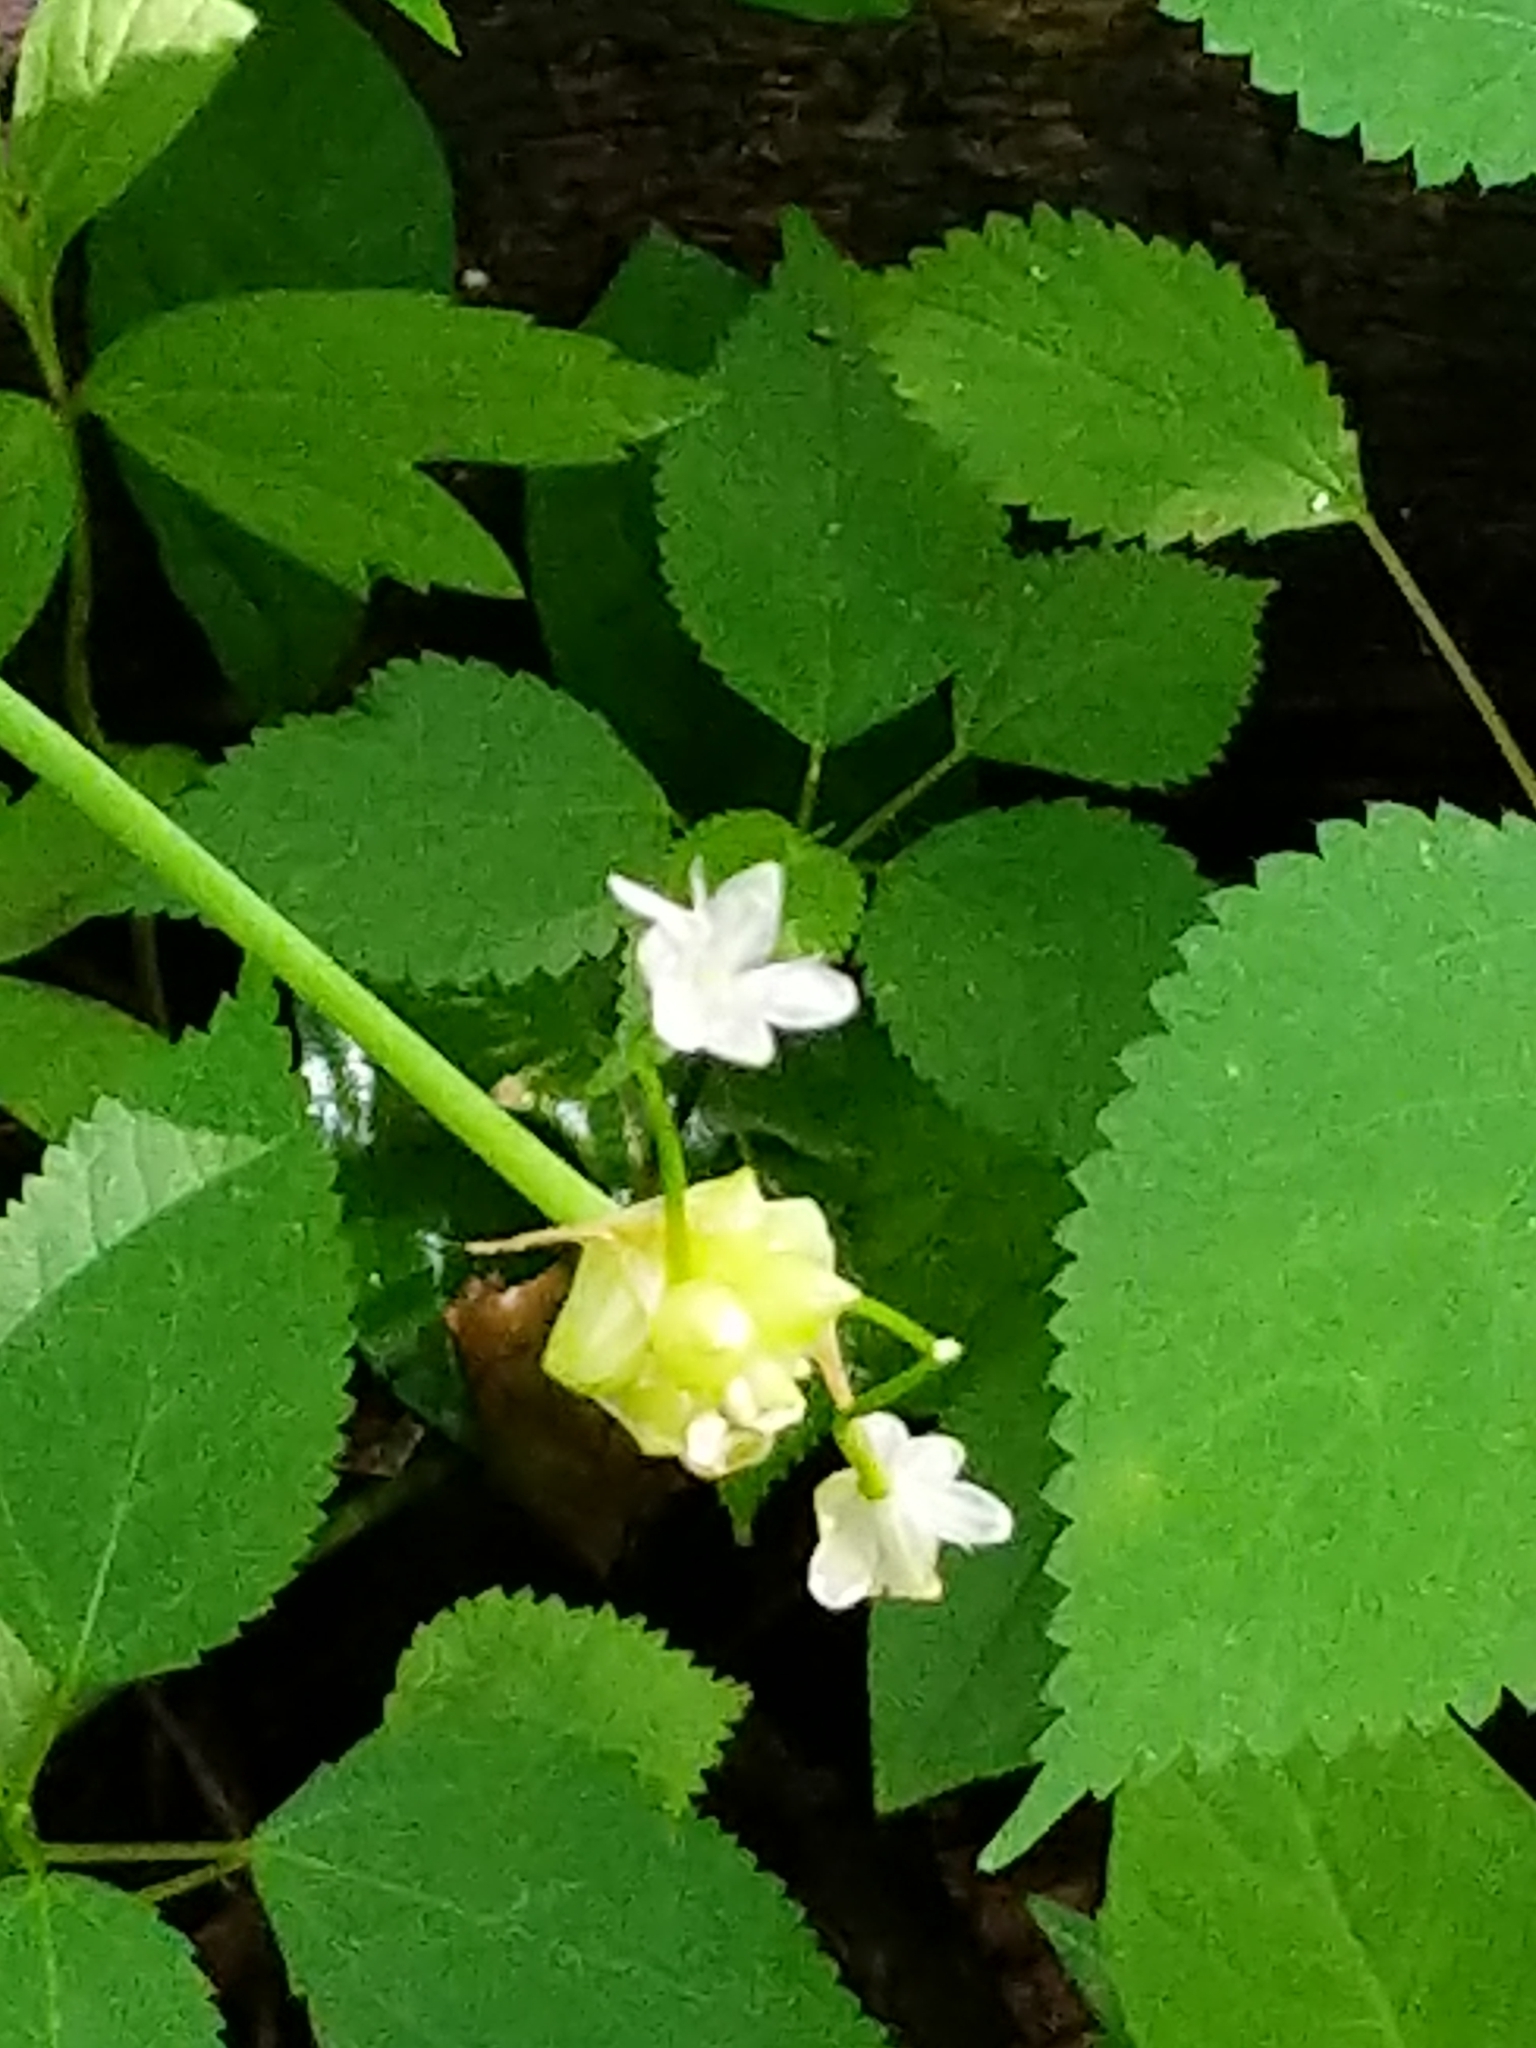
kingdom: Plantae
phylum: Tracheophyta
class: Liliopsida
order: Asparagales
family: Amaryllidaceae
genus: Allium
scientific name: Allium canadense
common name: Meadow garlic
